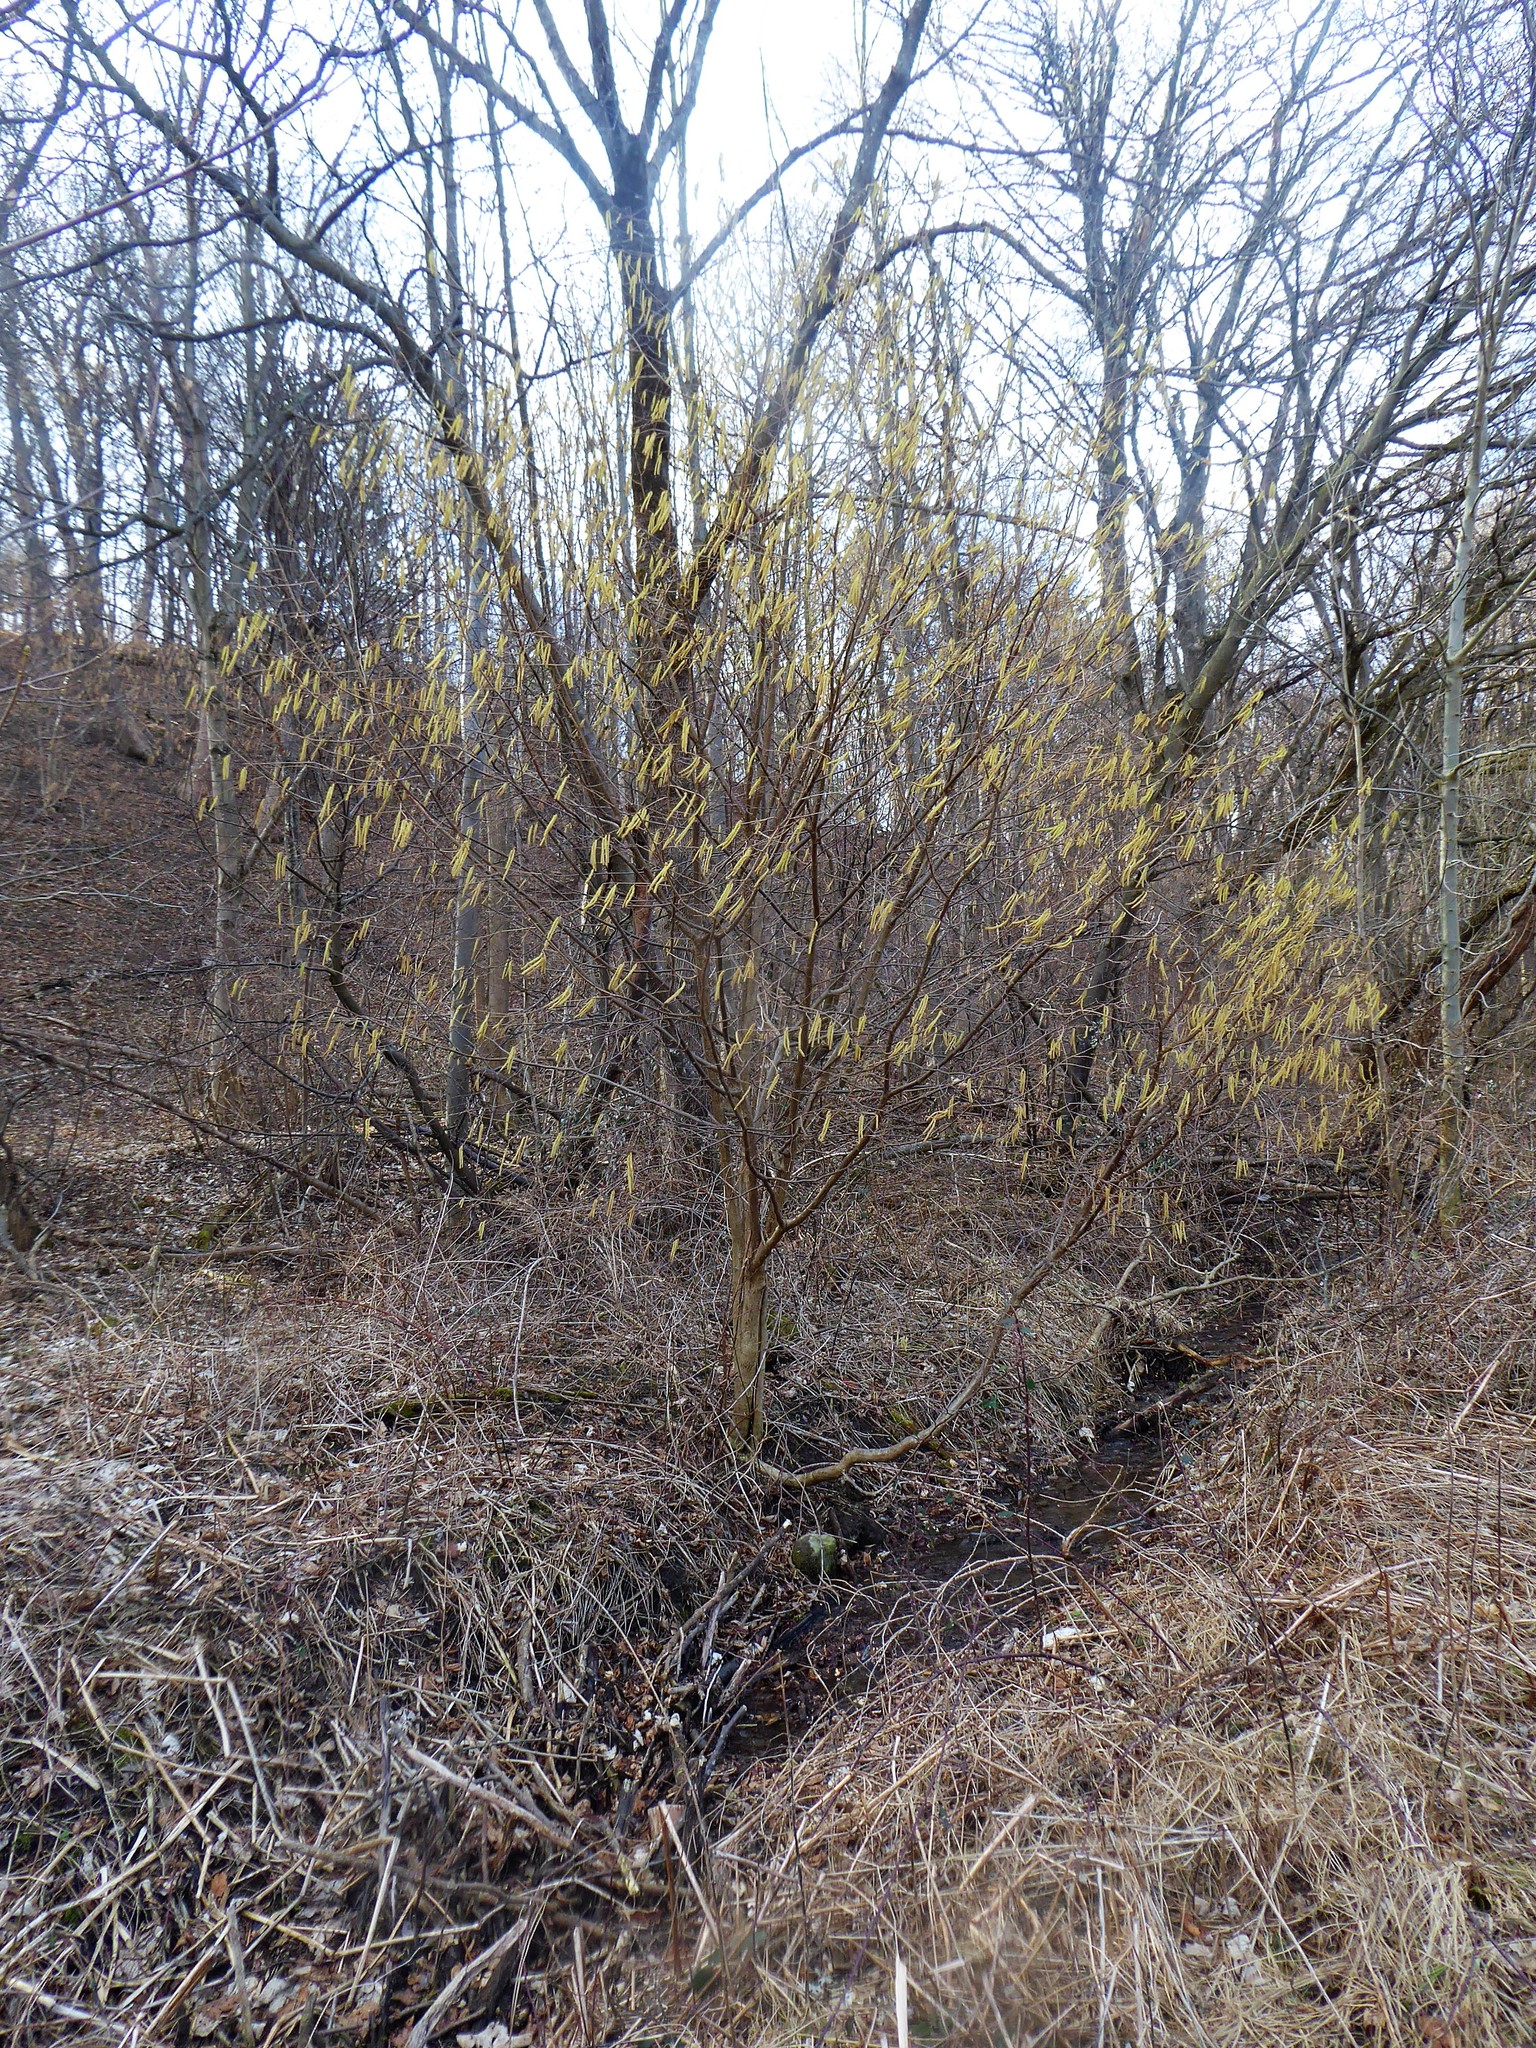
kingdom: Plantae
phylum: Tracheophyta
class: Magnoliopsida
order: Fagales
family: Betulaceae
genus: Corylus
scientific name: Corylus avellana
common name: European hazel
